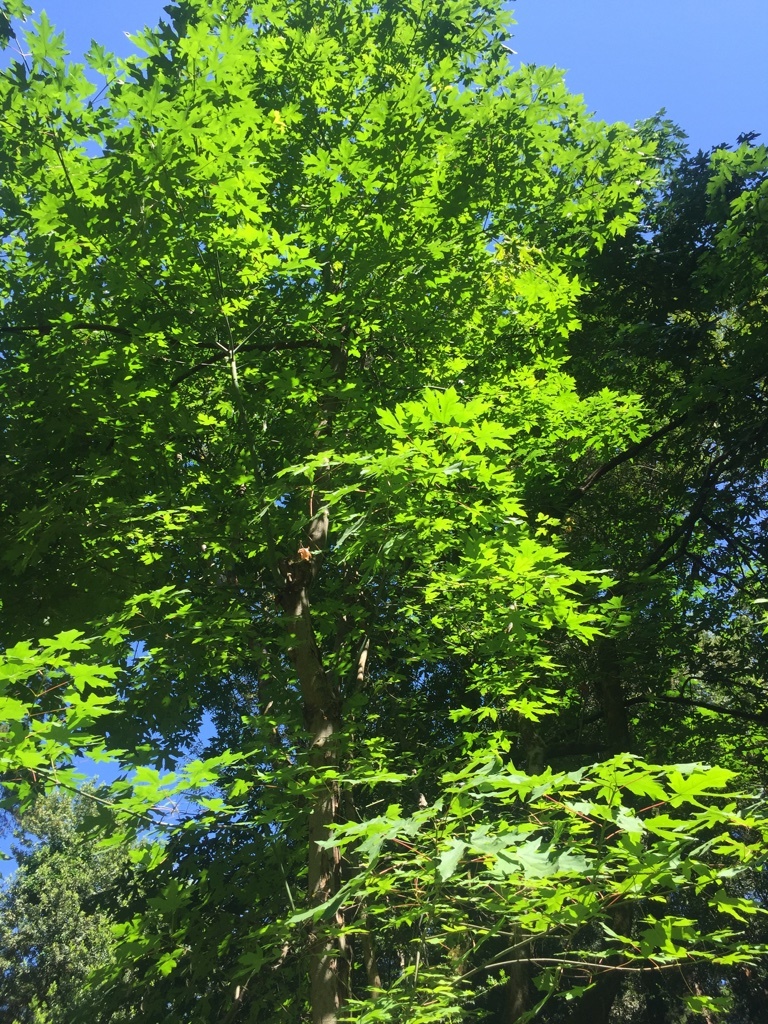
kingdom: Plantae
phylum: Tracheophyta
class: Magnoliopsida
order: Sapindales
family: Sapindaceae
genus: Acer
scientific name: Acer macrophyllum
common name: Oregon maple
